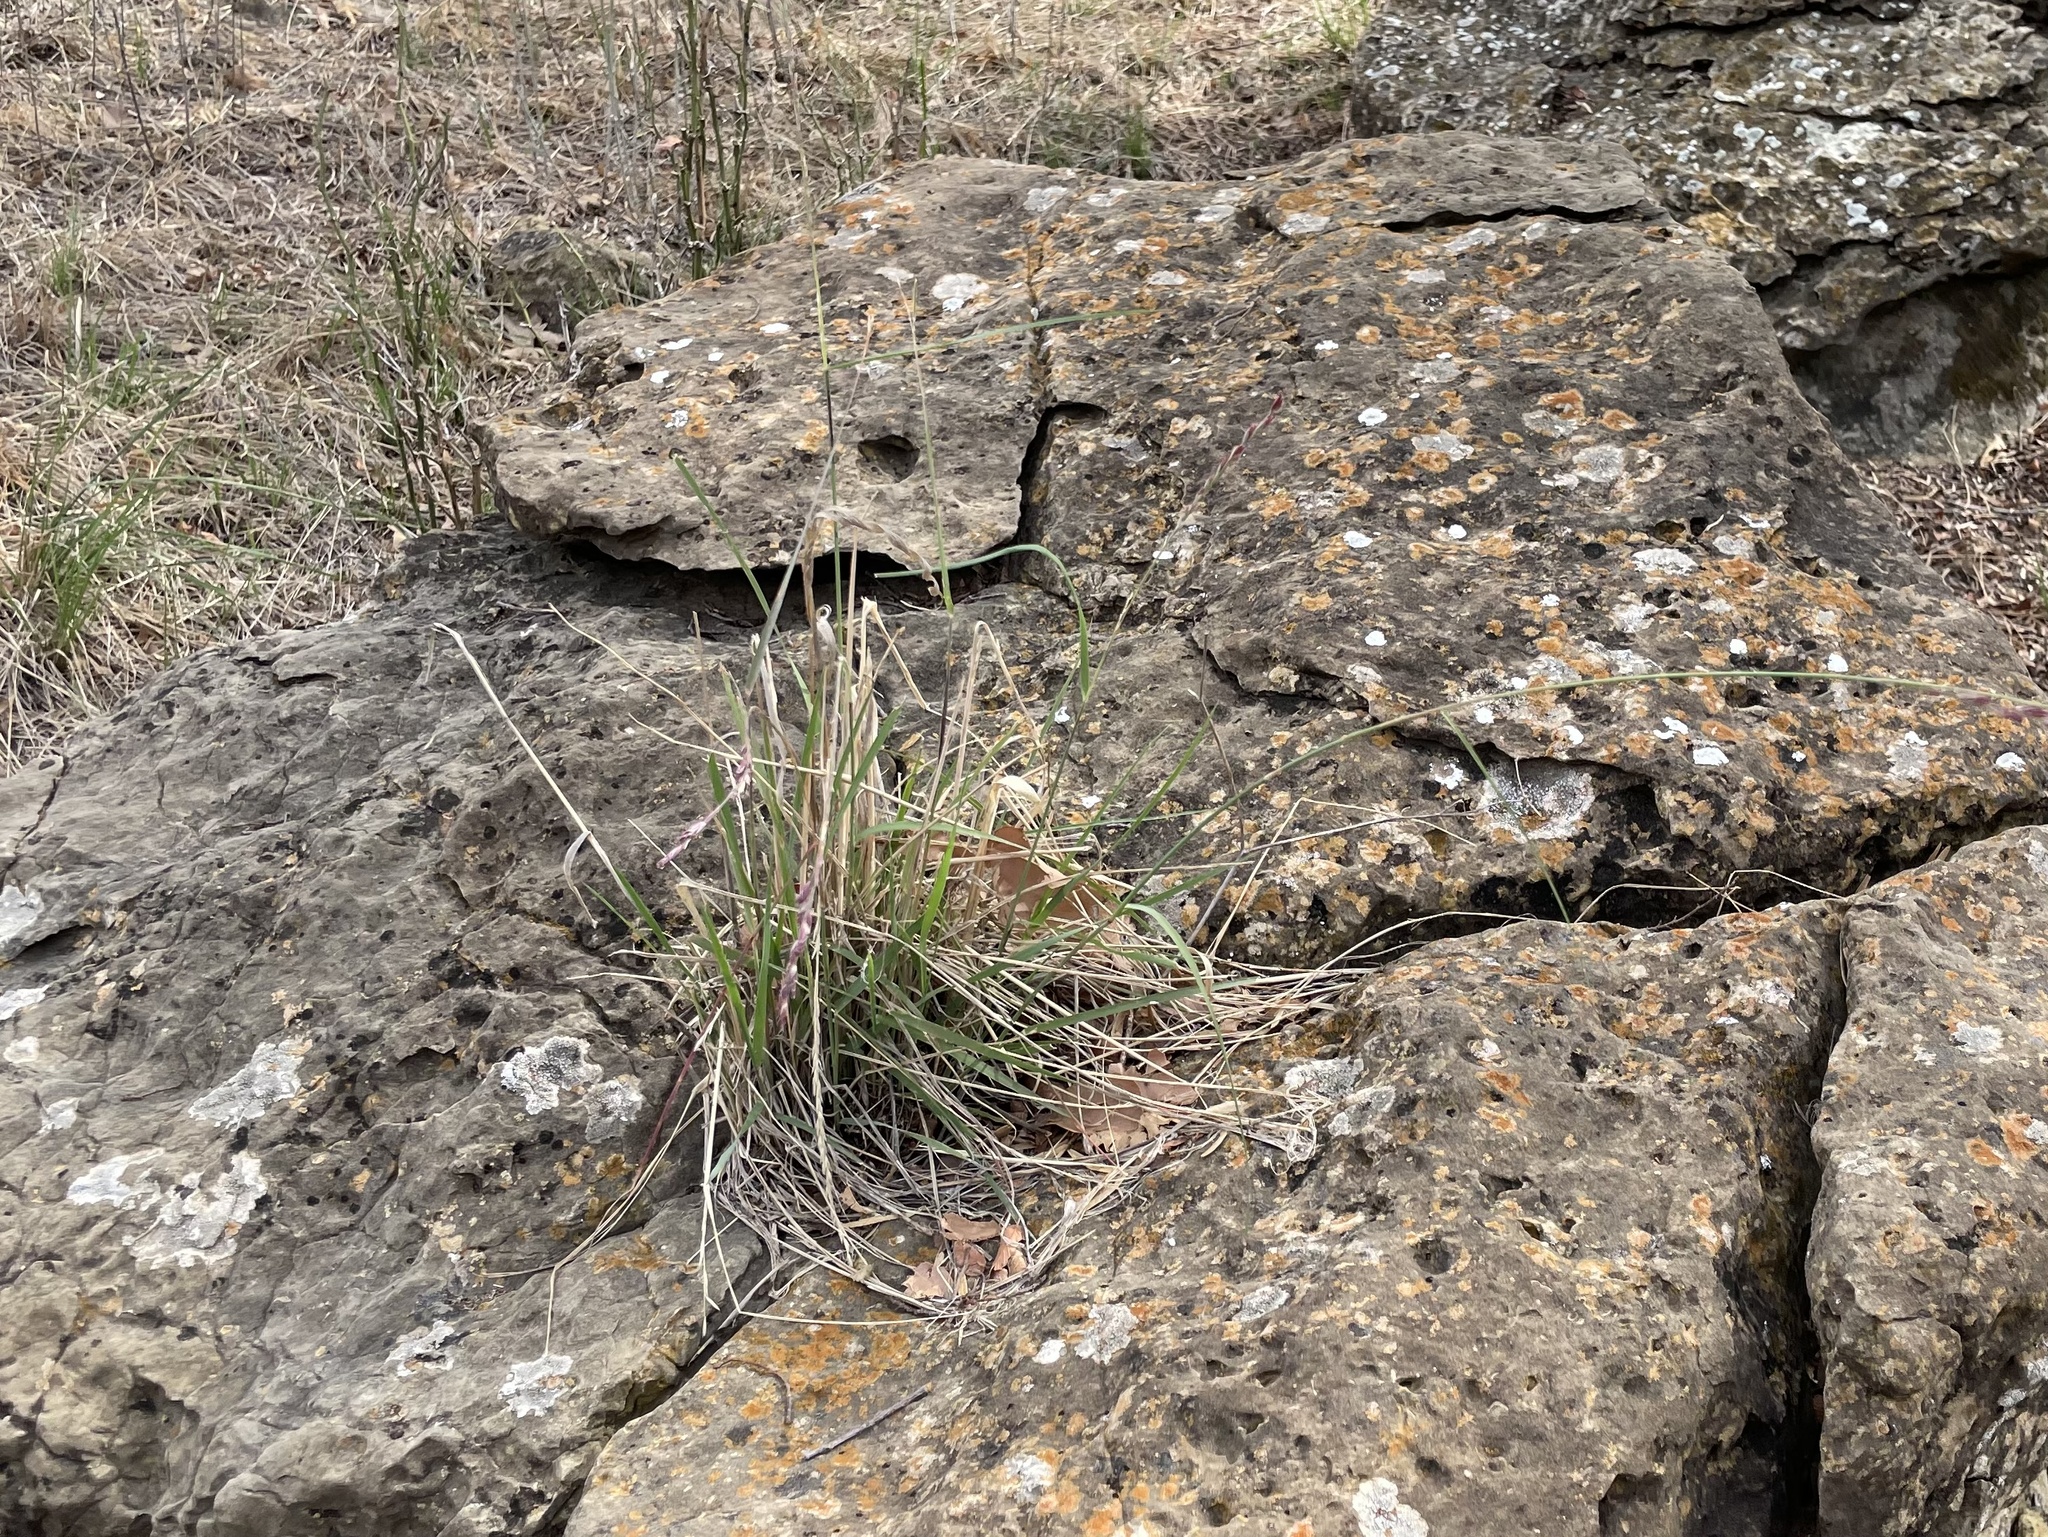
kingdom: Plantae
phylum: Tracheophyta
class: Liliopsida
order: Poales
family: Poaceae
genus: Tridentopsis
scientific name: Tridentopsis mutica
